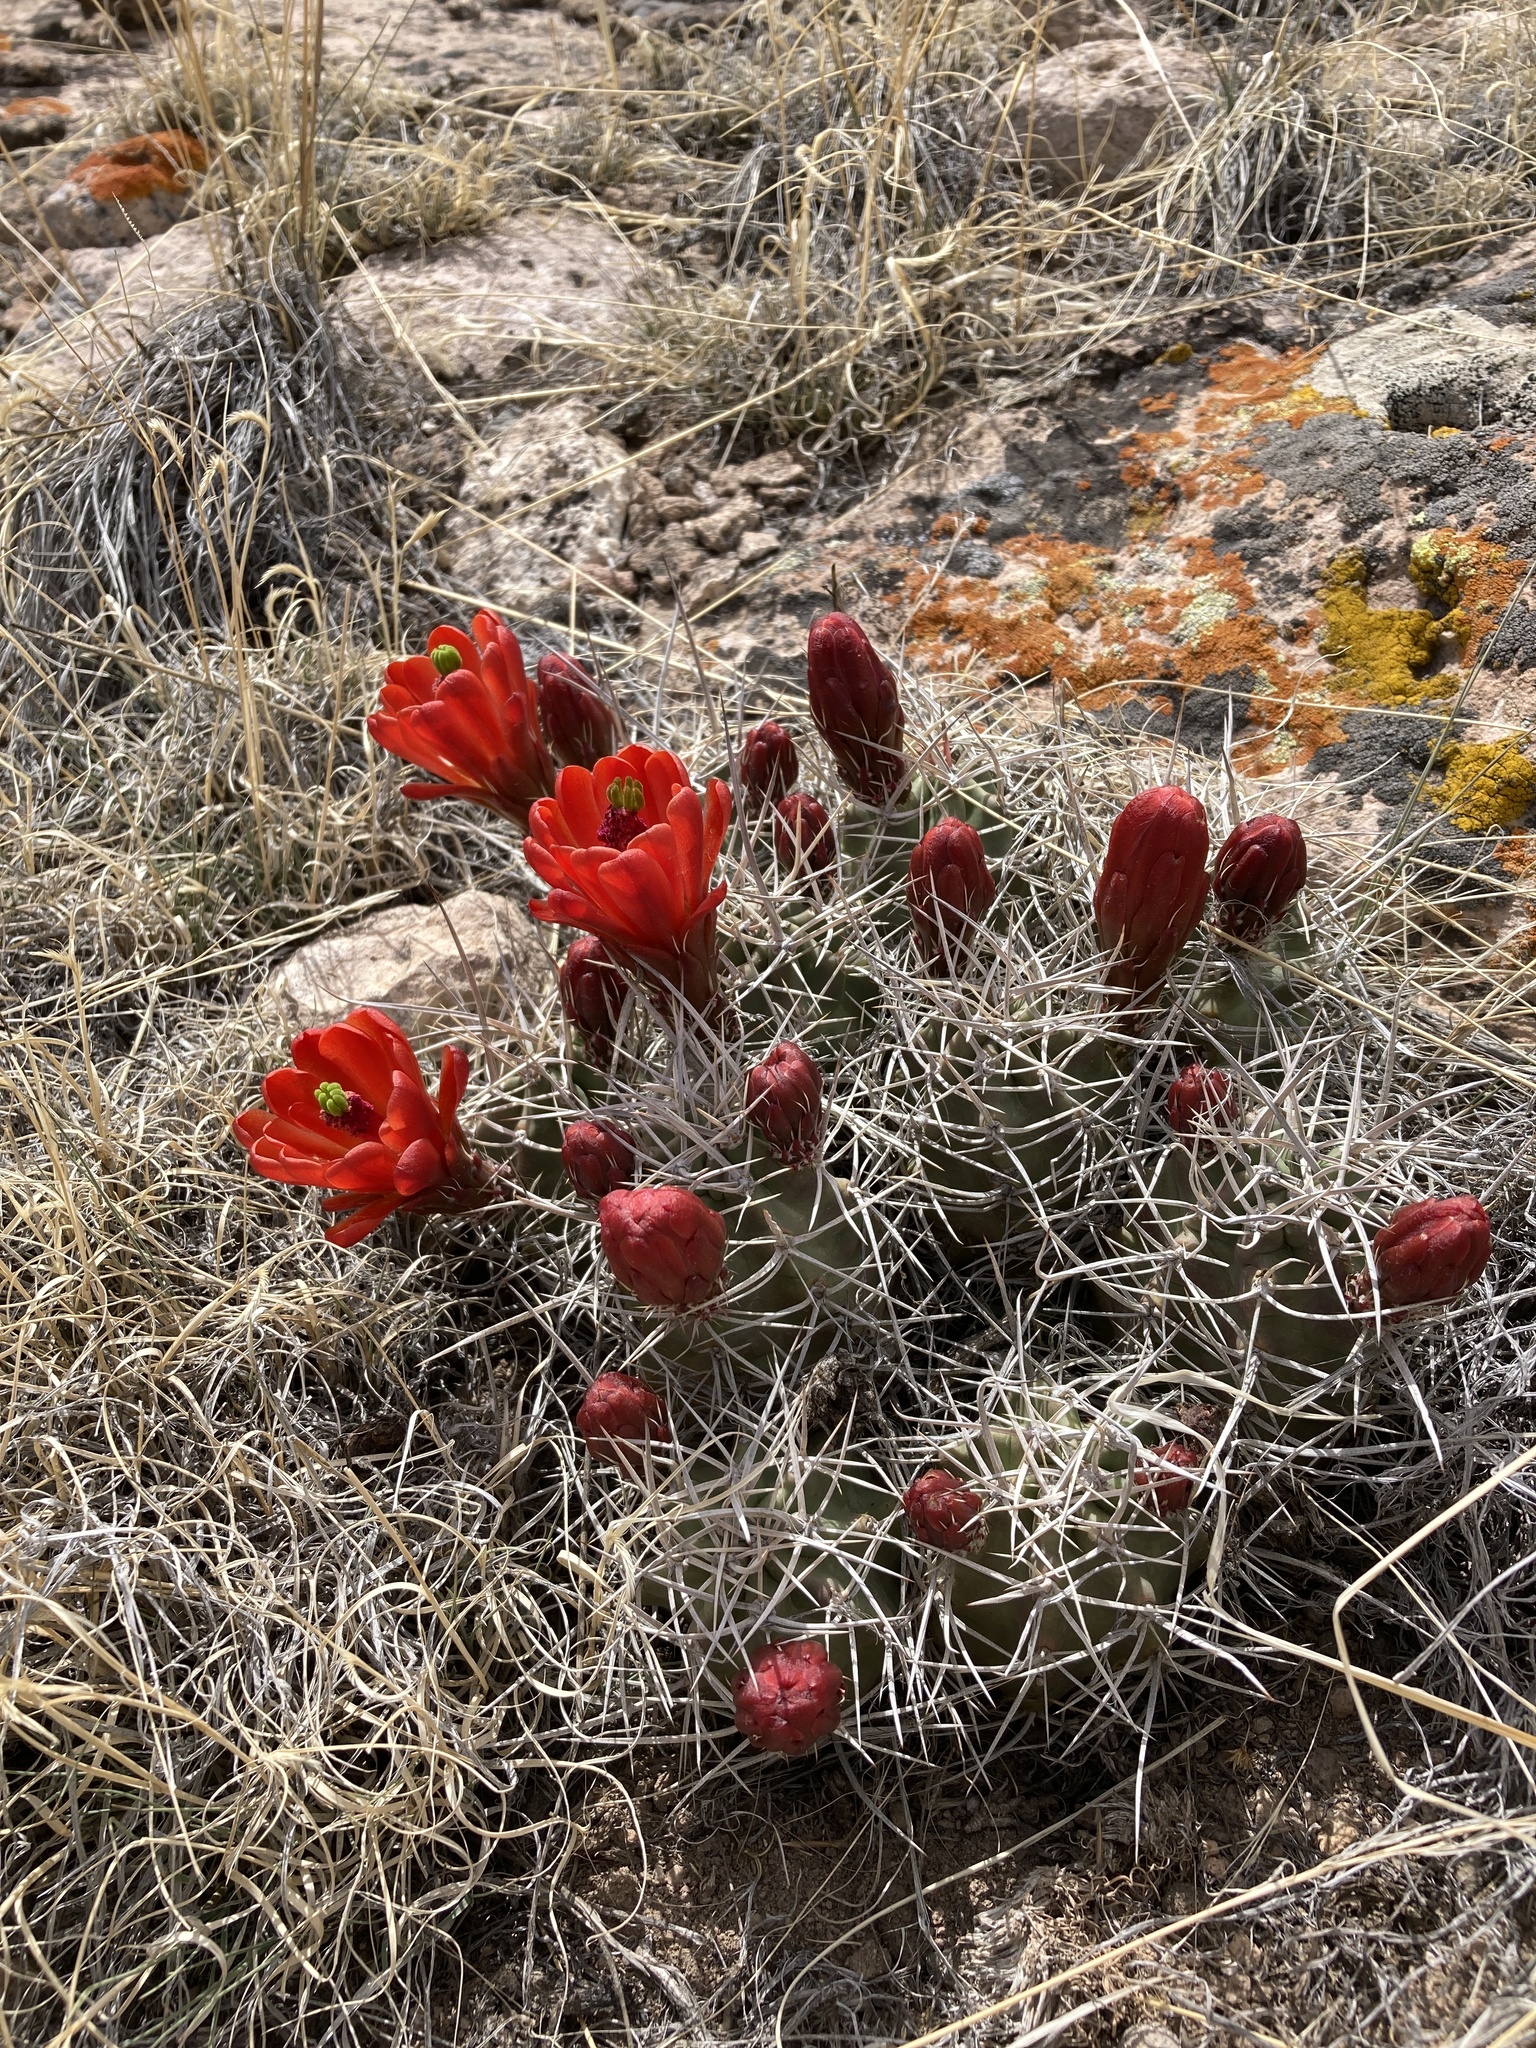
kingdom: Plantae
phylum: Tracheophyta
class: Magnoliopsida
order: Caryophyllales
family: Cactaceae
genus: Echinocereus
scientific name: Echinocereus triglochidiatus
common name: Claretcup hedgehog
